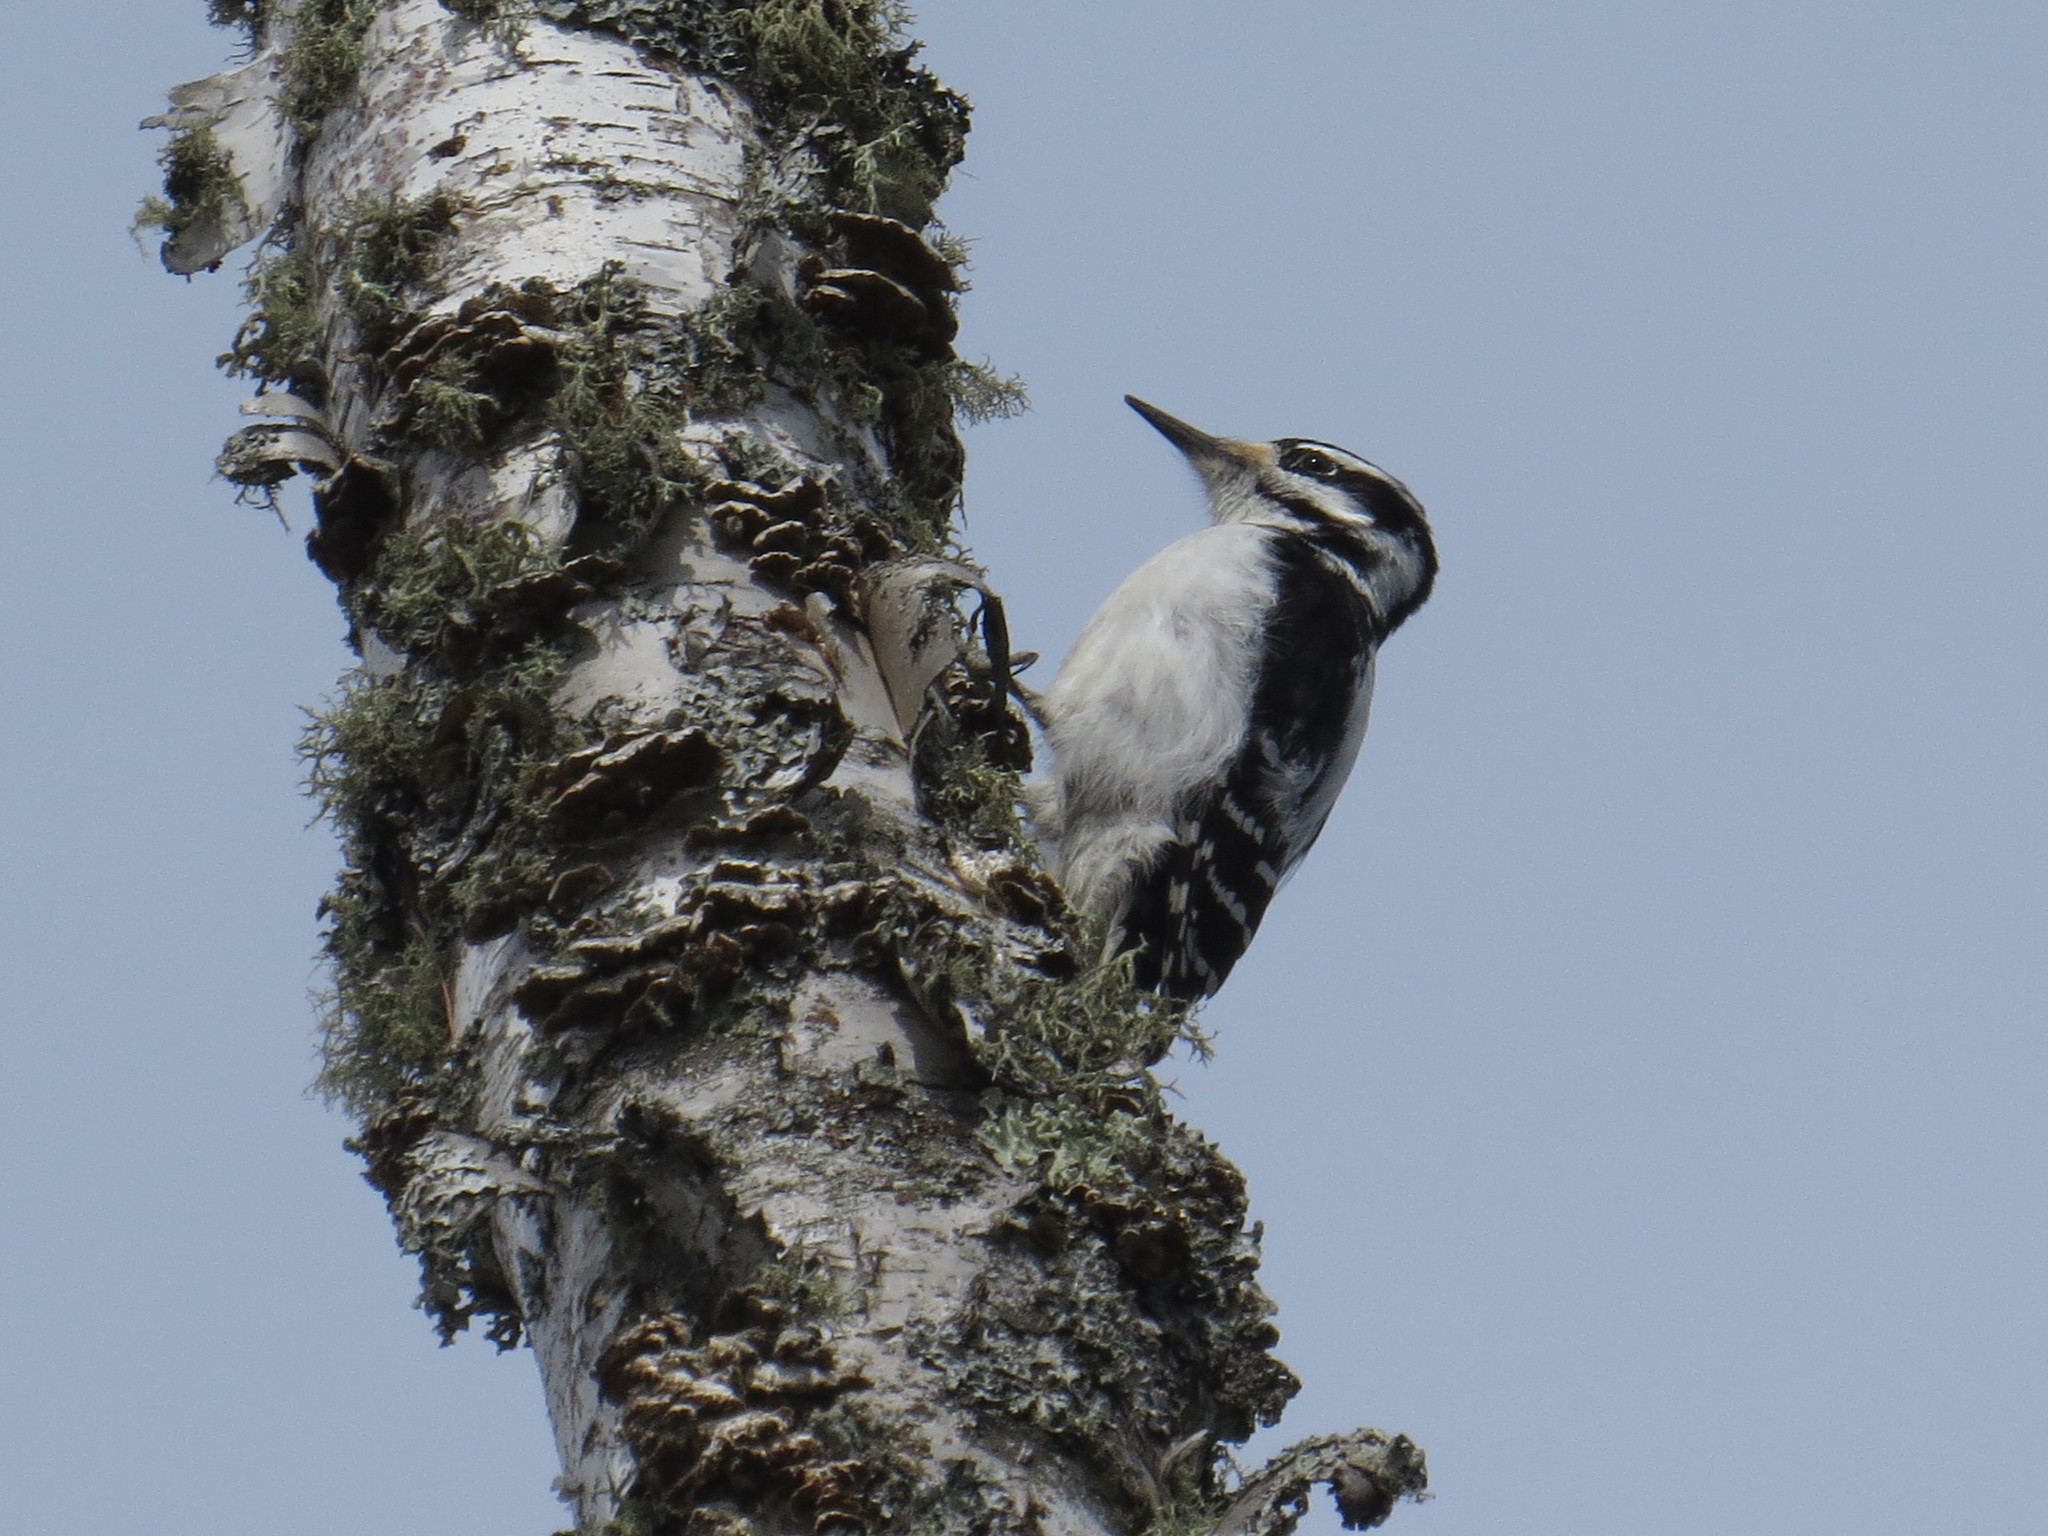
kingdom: Animalia
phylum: Chordata
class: Aves
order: Piciformes
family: Picidae
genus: Leuconotopicus
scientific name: Leuconotopicus villosus
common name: Hairy woodpecker
